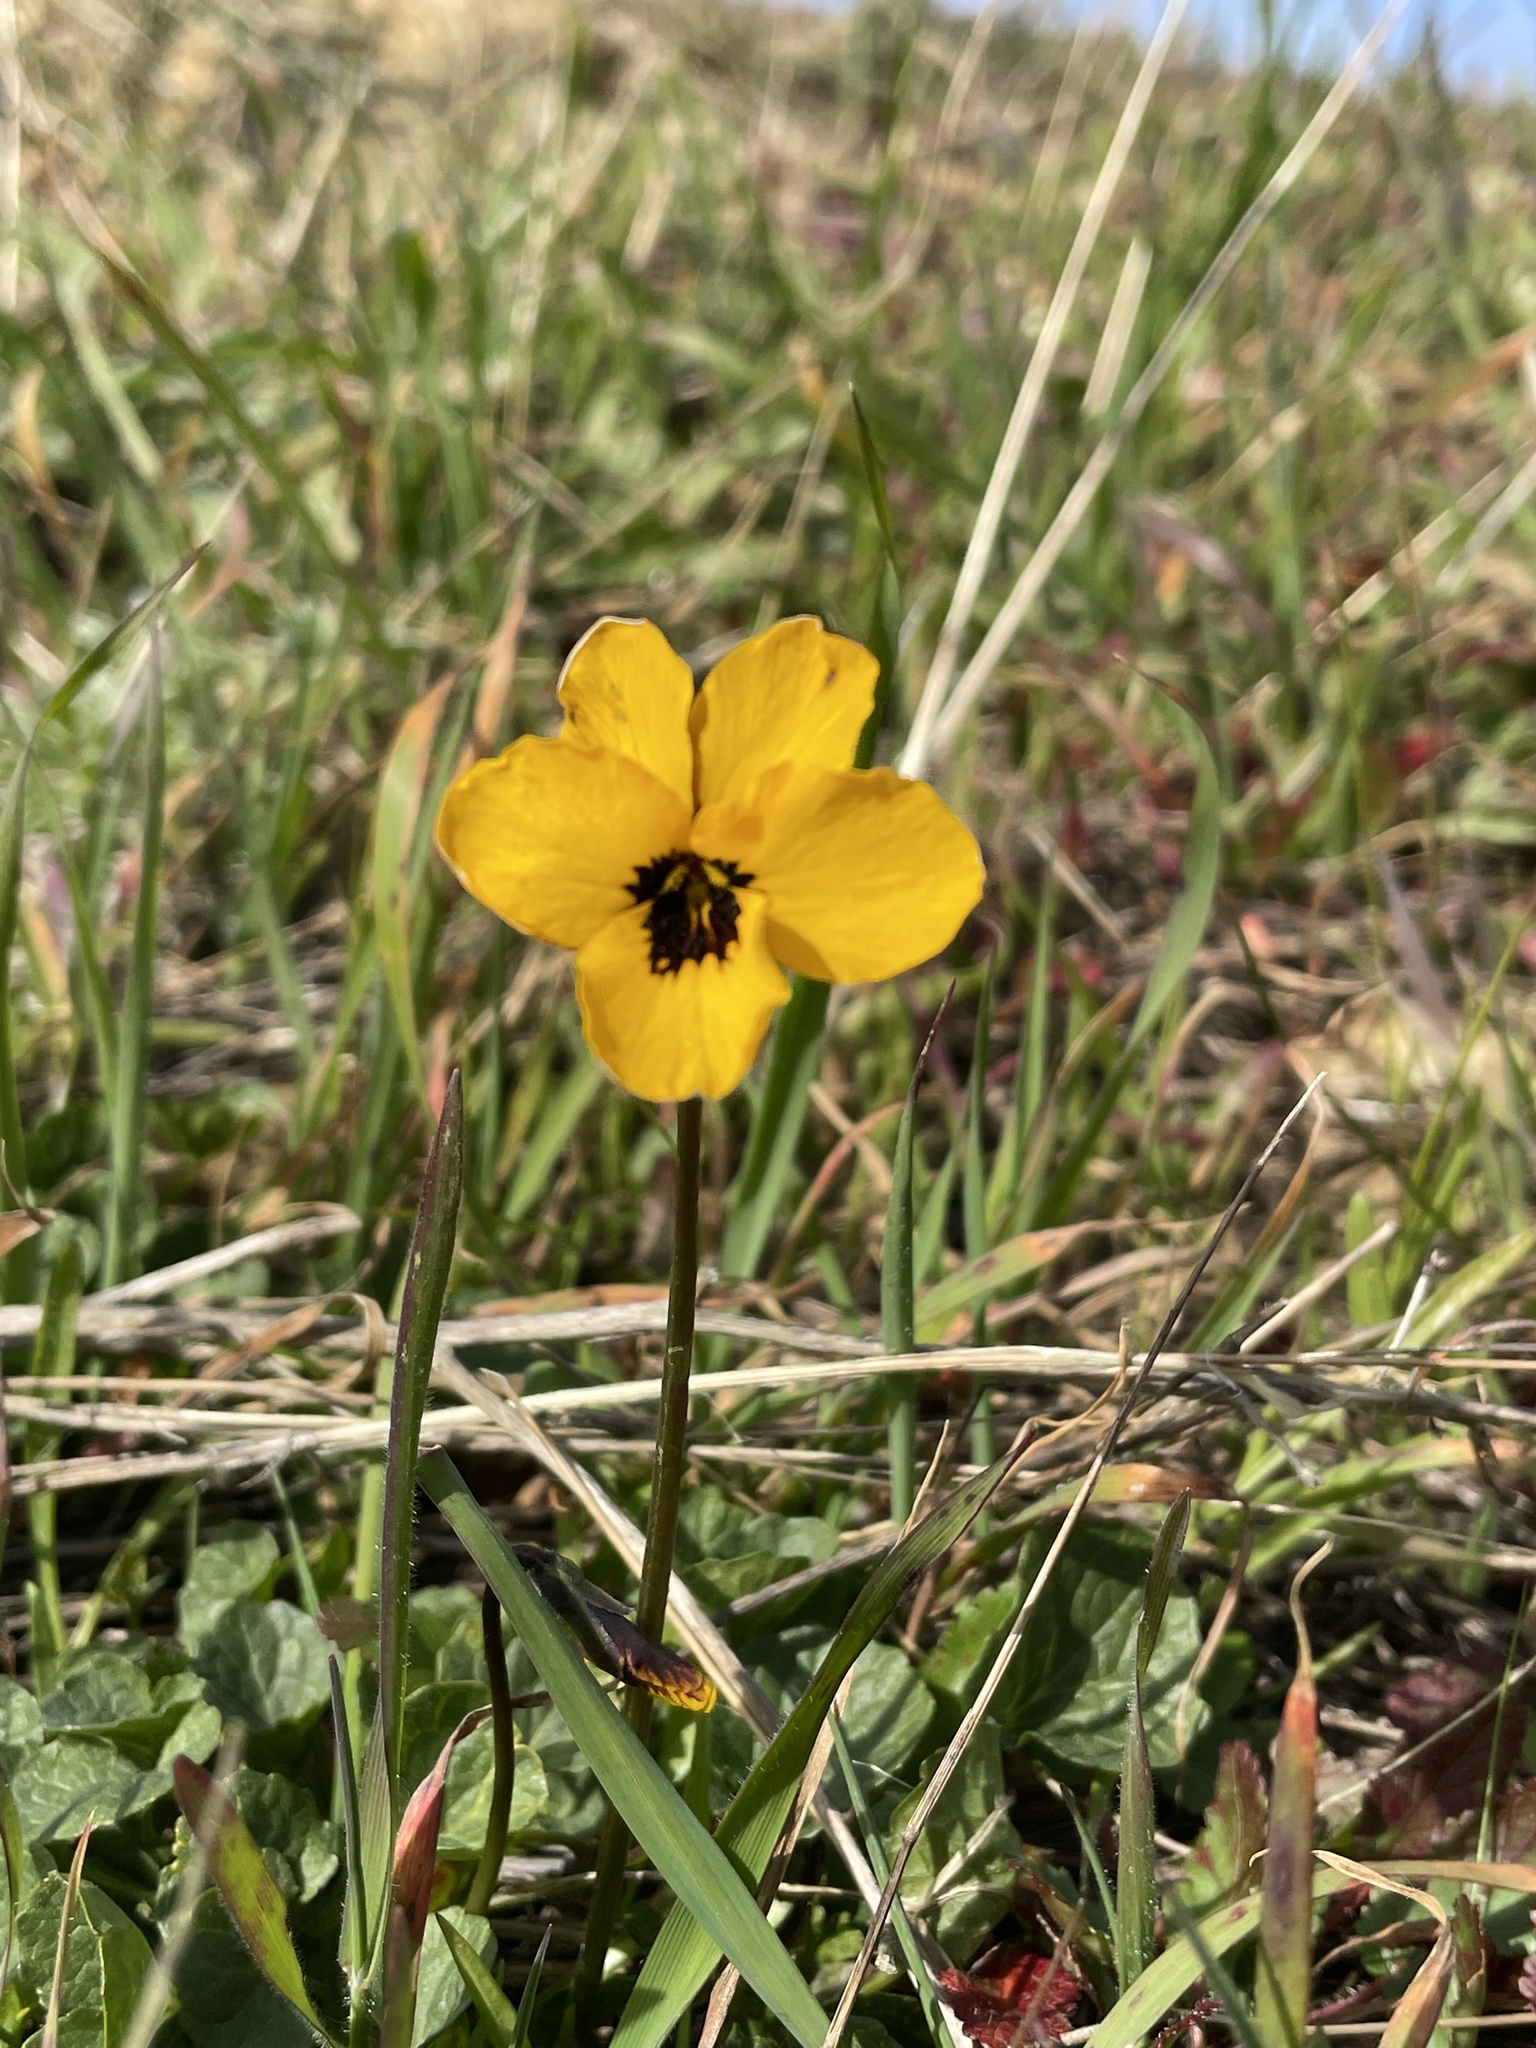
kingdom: Plantae
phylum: Tracheophyta
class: Magnoliopsida
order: Malpighiales
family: Violaceae
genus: Viola
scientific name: Viola pedunculata
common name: California golden violet
